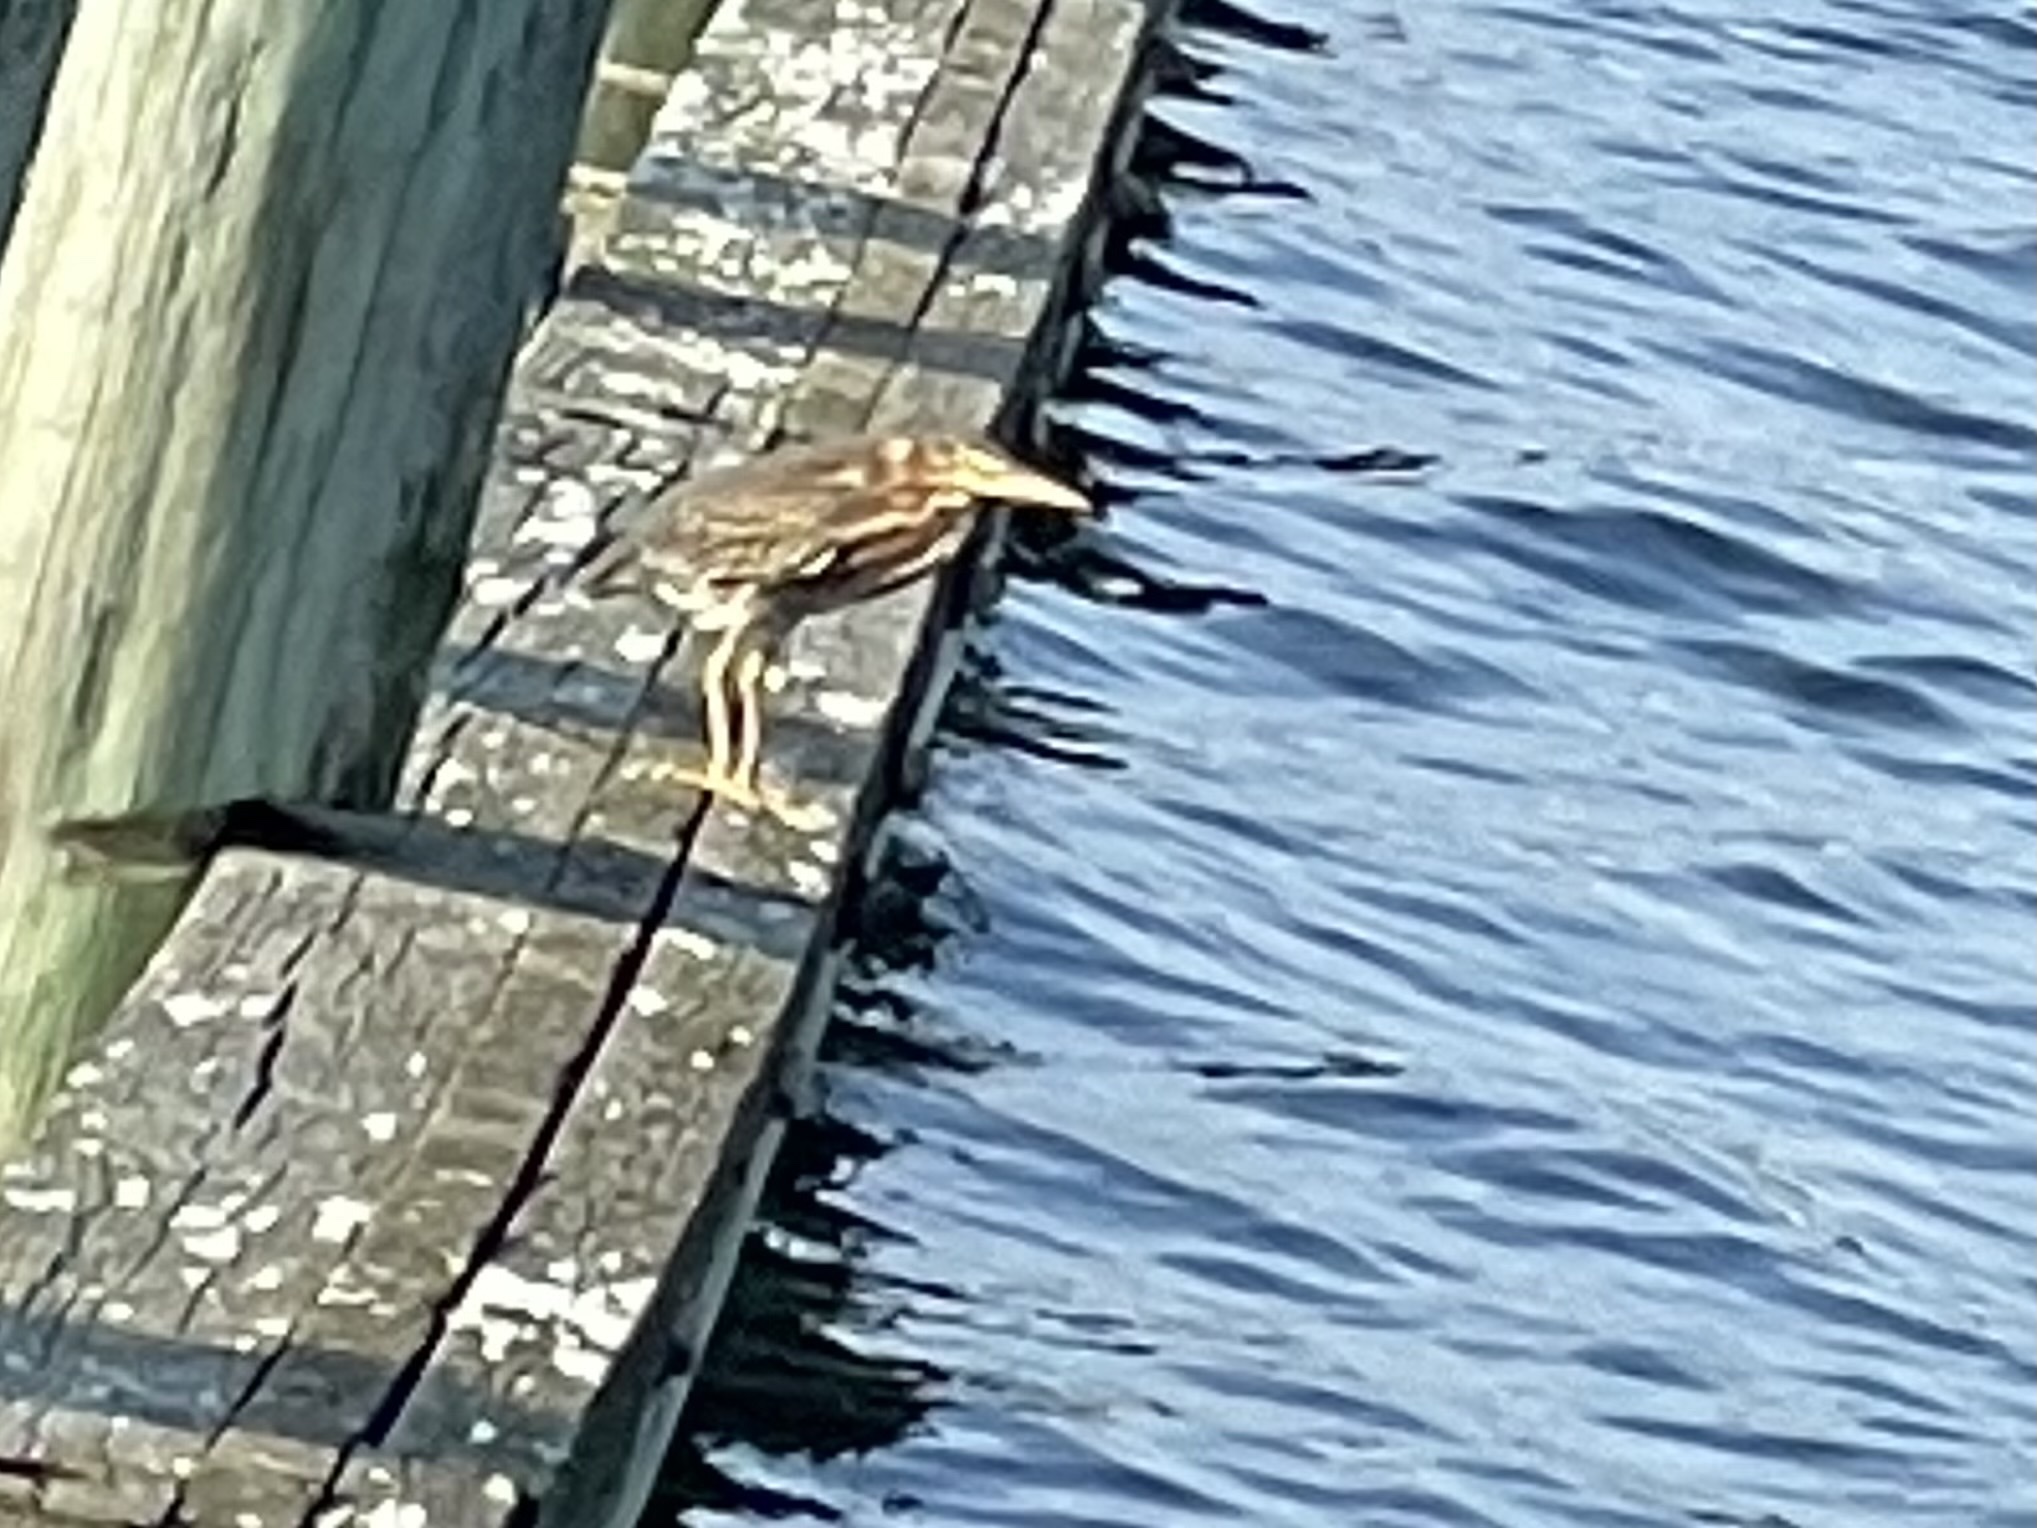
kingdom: Animalia
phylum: Chordata
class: Aves
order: Pelecaniformes
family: Ardeidae
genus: Butorides
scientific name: Butorides virescens
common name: Green heron
